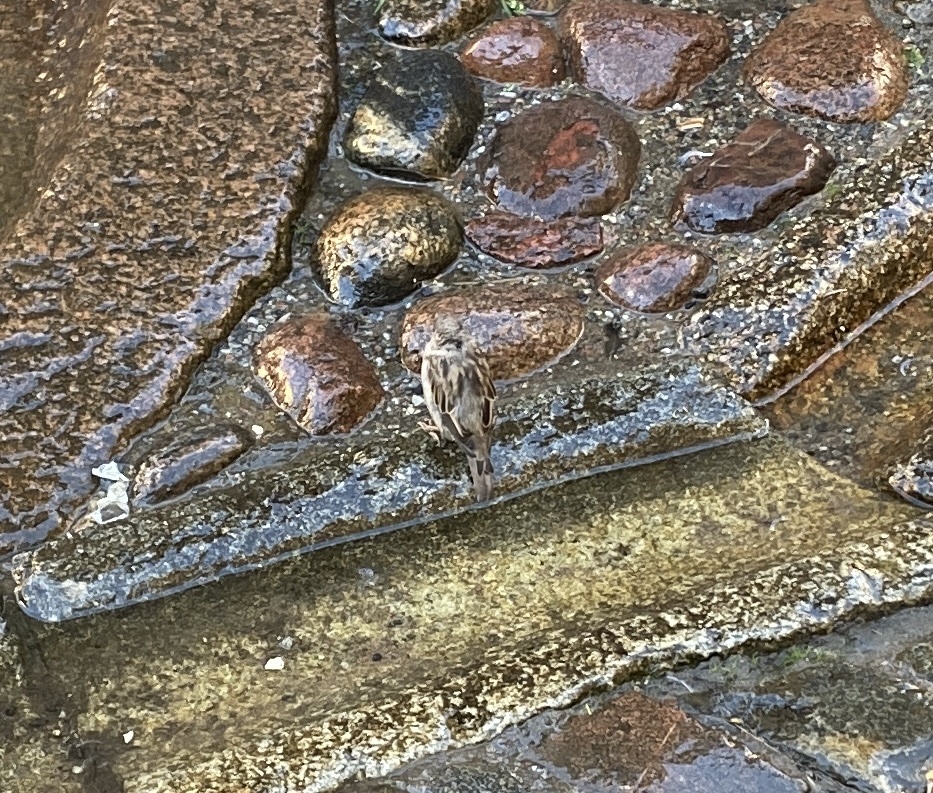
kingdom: Animalia
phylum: Chordata
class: Aves
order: Passeriformes
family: Passeridae
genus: Passer
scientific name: Passer domesticus
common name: House sparrow
